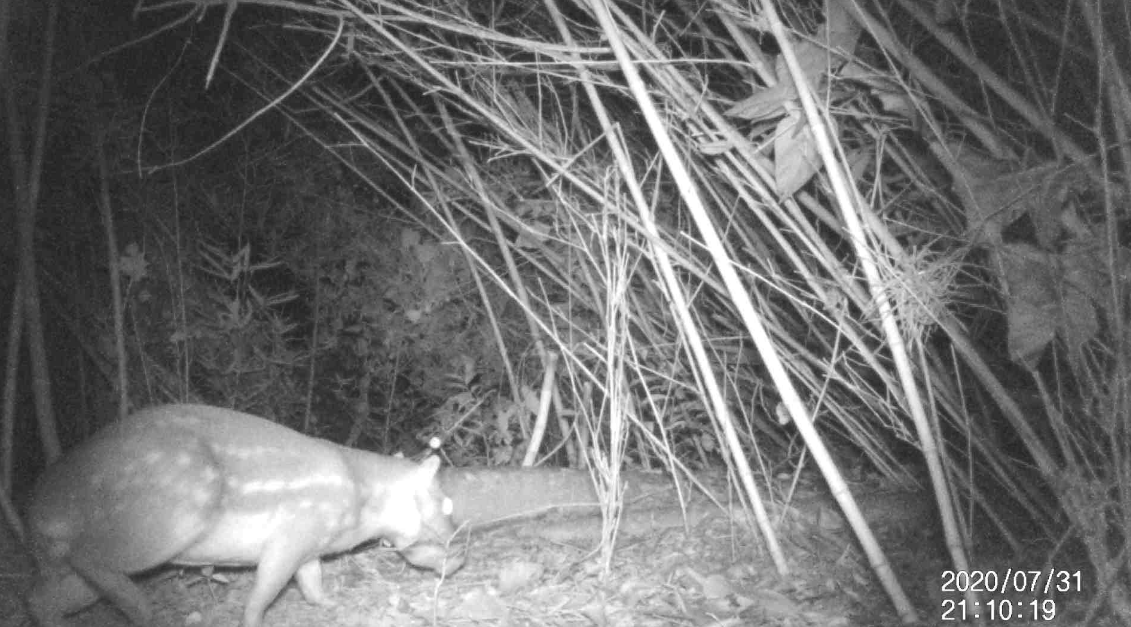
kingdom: Animalia
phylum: Chordata
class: Mammalia
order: Rodentia
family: Cuniculidae
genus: Cuniculus
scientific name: Cuniculus paca
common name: Lowland paca
